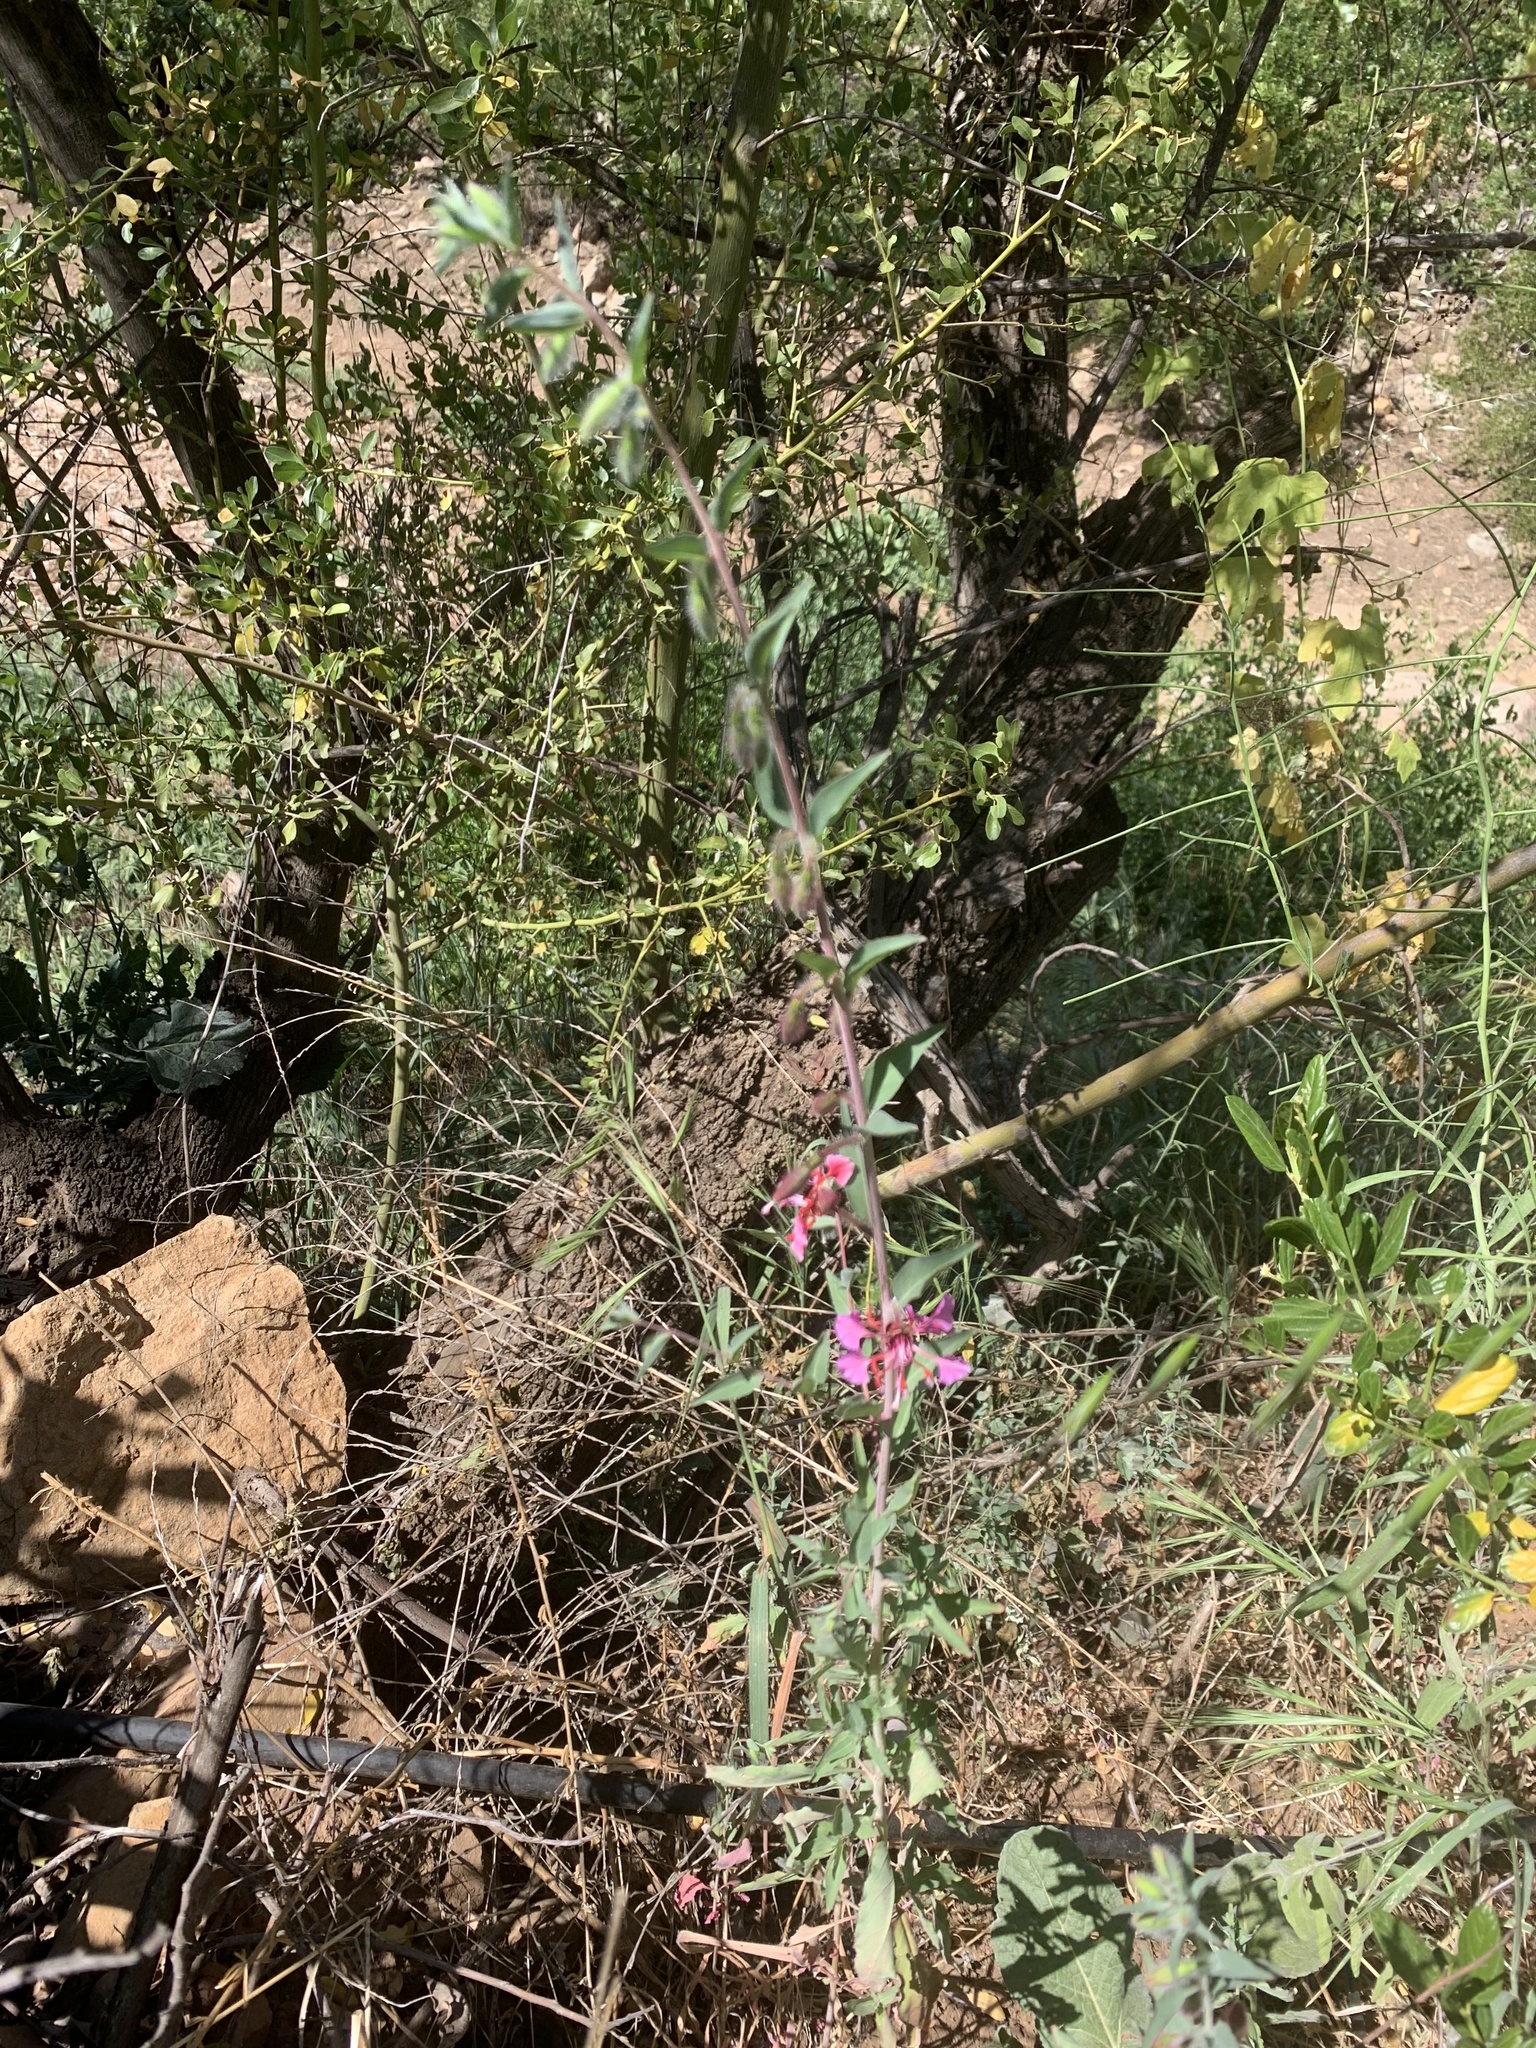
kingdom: Plantae
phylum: Tracheophyta
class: Magnoliopsida
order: Myrtales
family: Onagraceae
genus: Clarkia
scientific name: Clarkia unguiculata
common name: Clarkia
